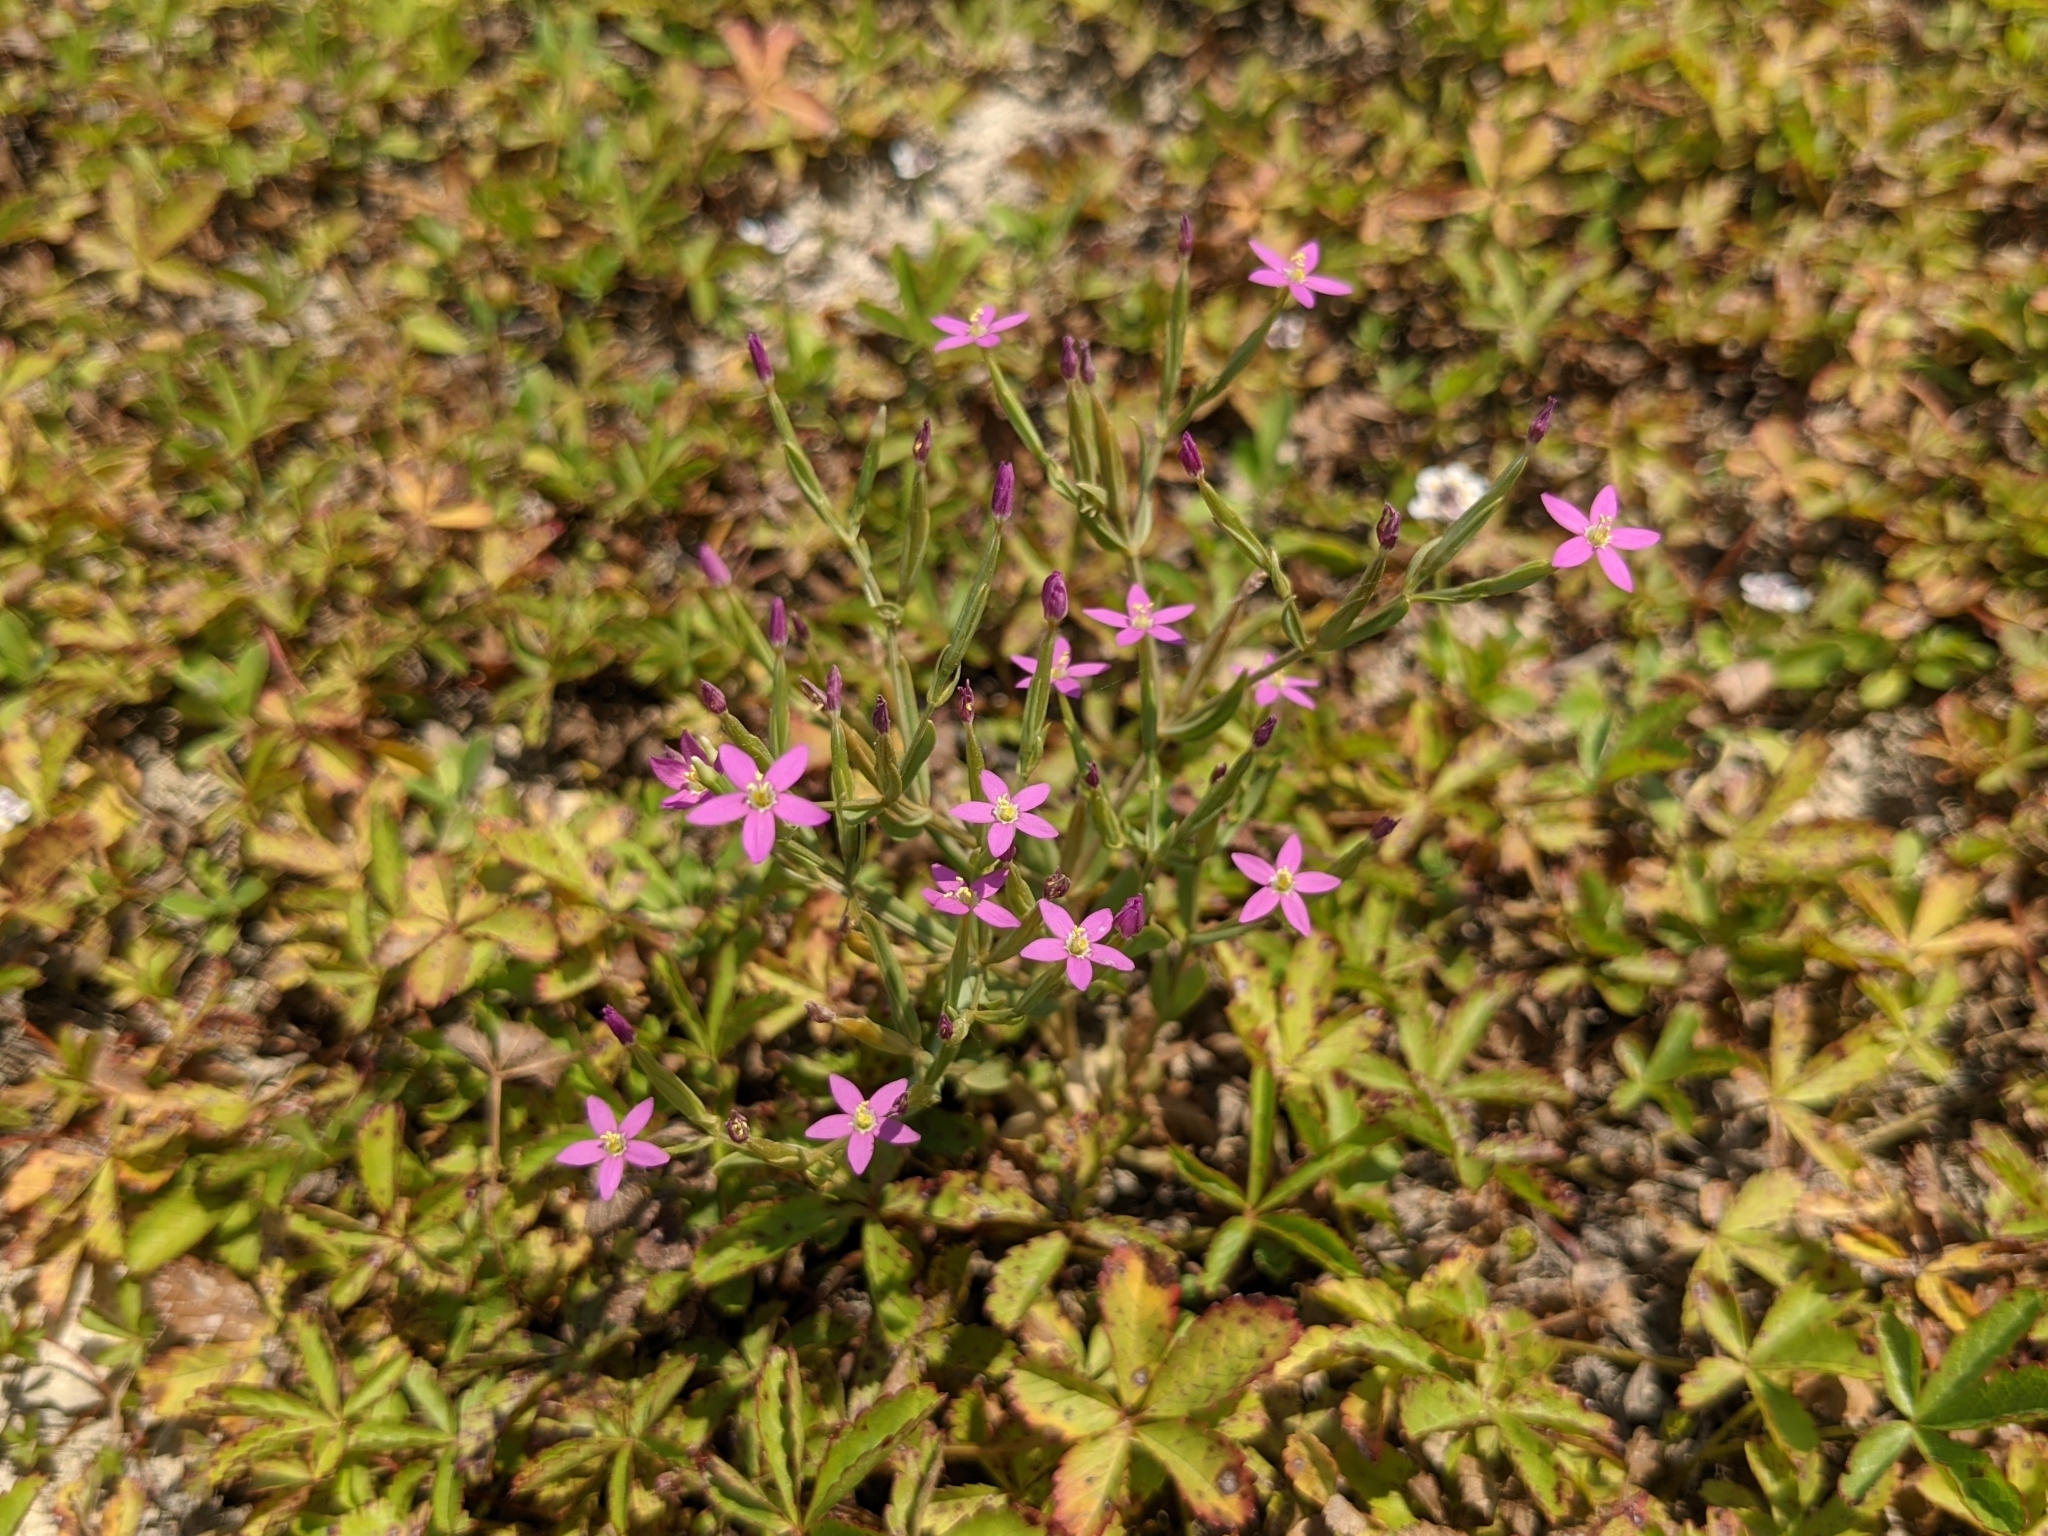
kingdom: Plantae
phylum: Tracheophyta
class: Magnoliopsida
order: Gentianales
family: Gentianaceae
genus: Centaurium
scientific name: Centaurium pulchellum
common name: Lesser centaury
